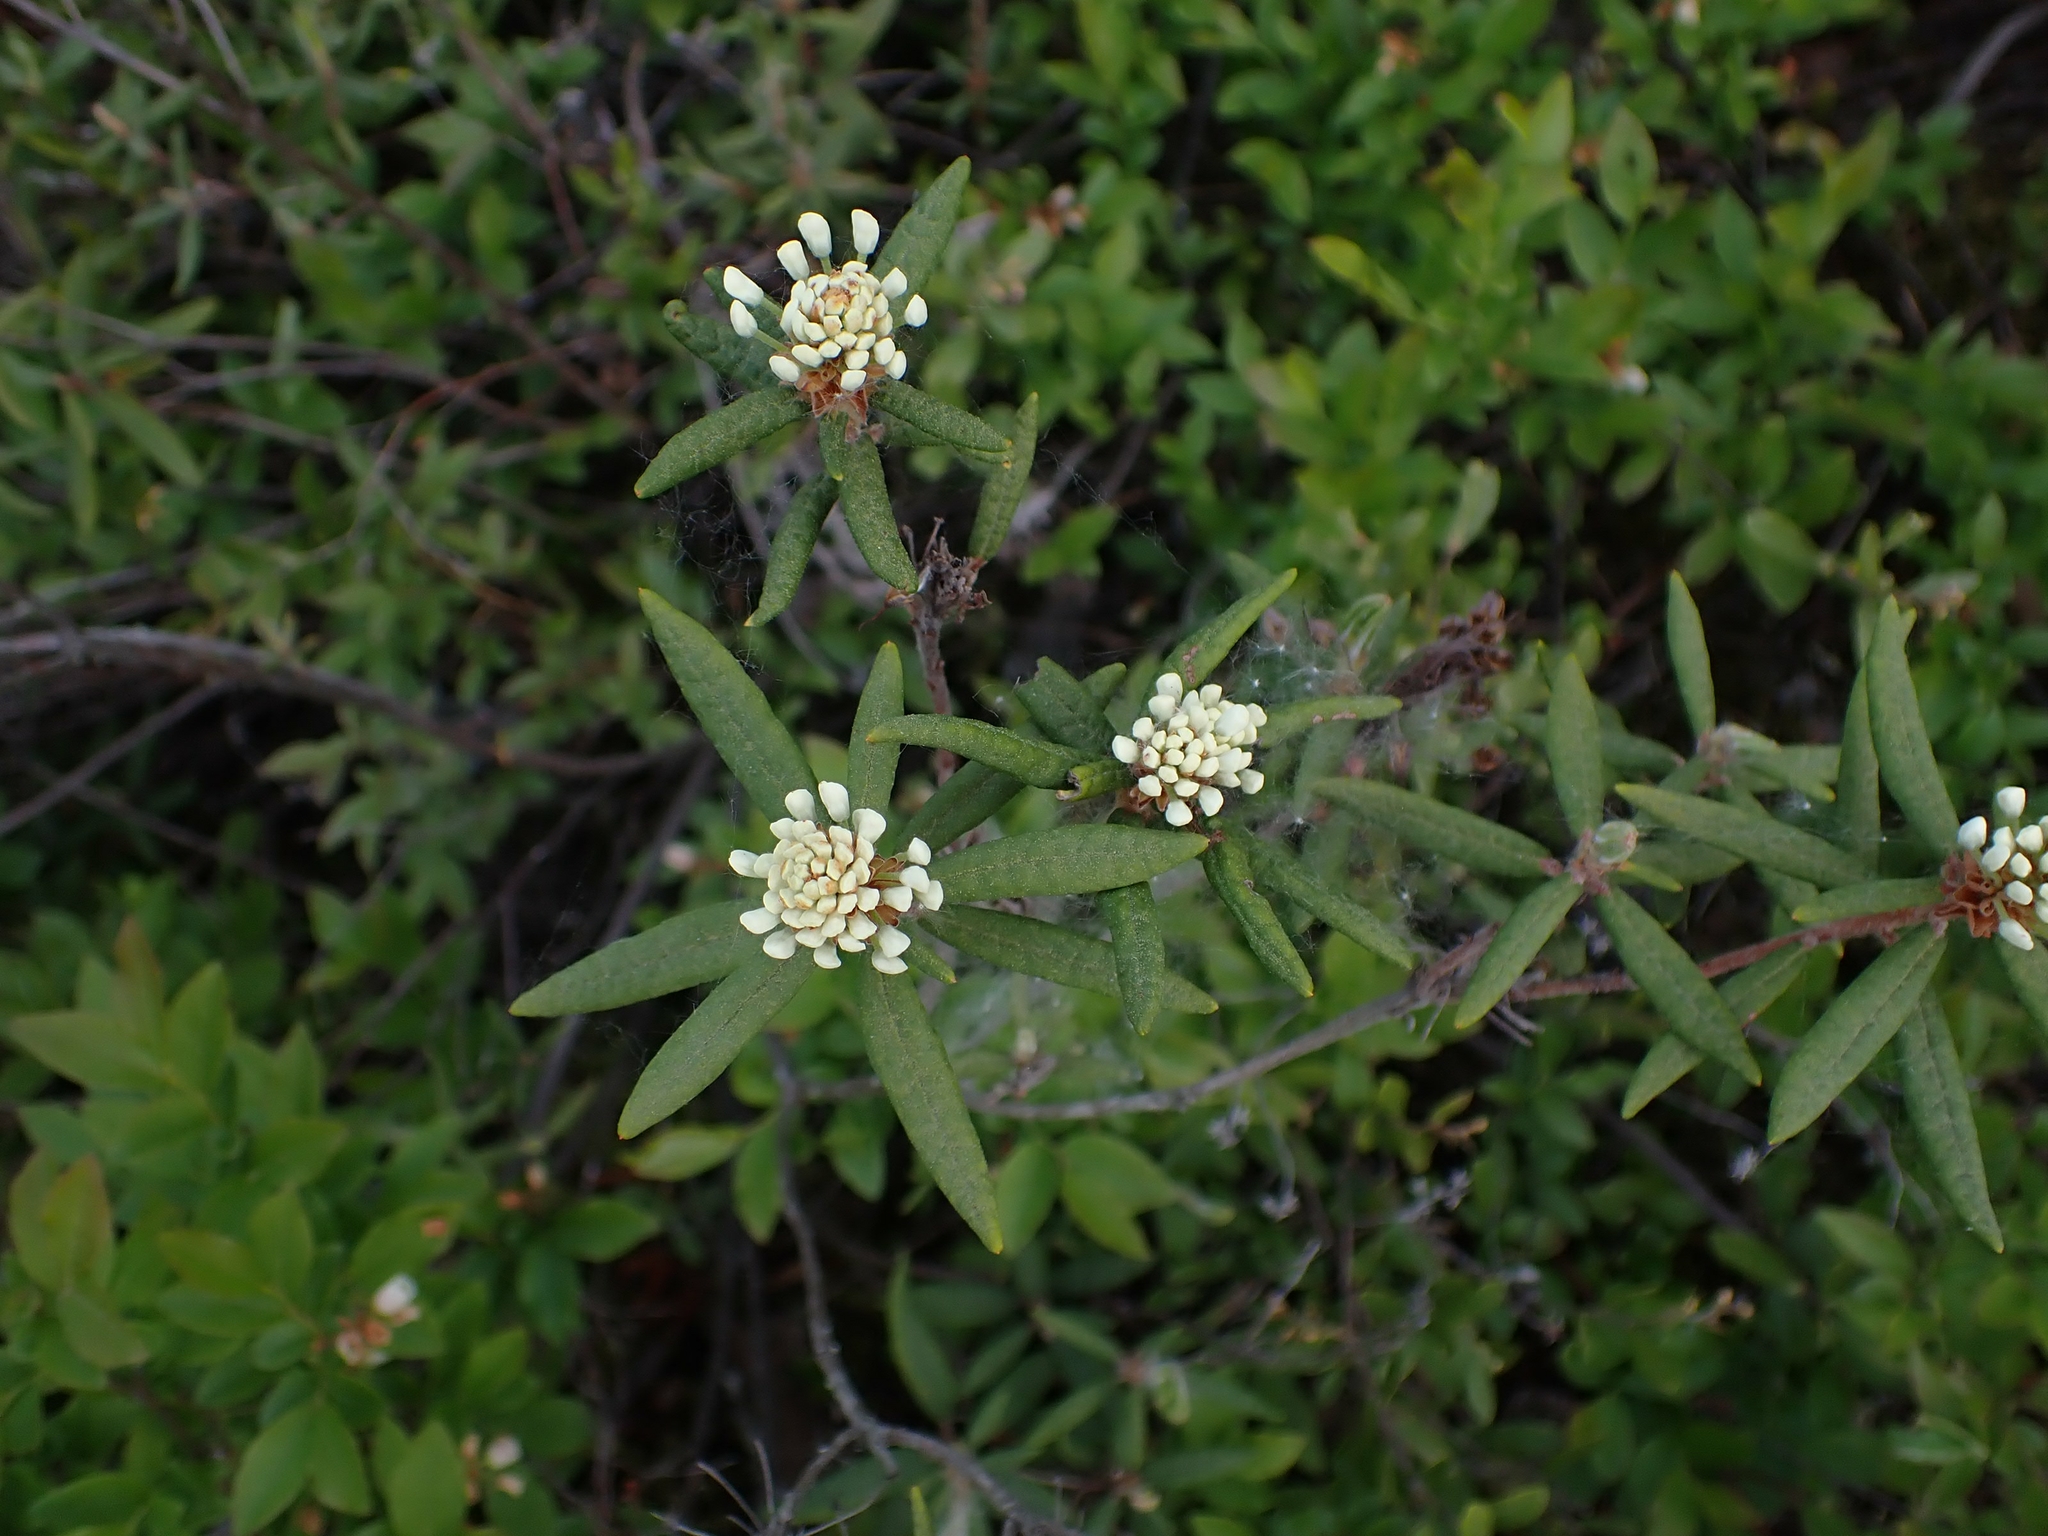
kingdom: Plantae
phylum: Tracheophyta
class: Magnoliopsida
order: Ericales
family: Ericaceae
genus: Rhododendron
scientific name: Rhododendron groenlandicum
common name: Bog labrador tea
